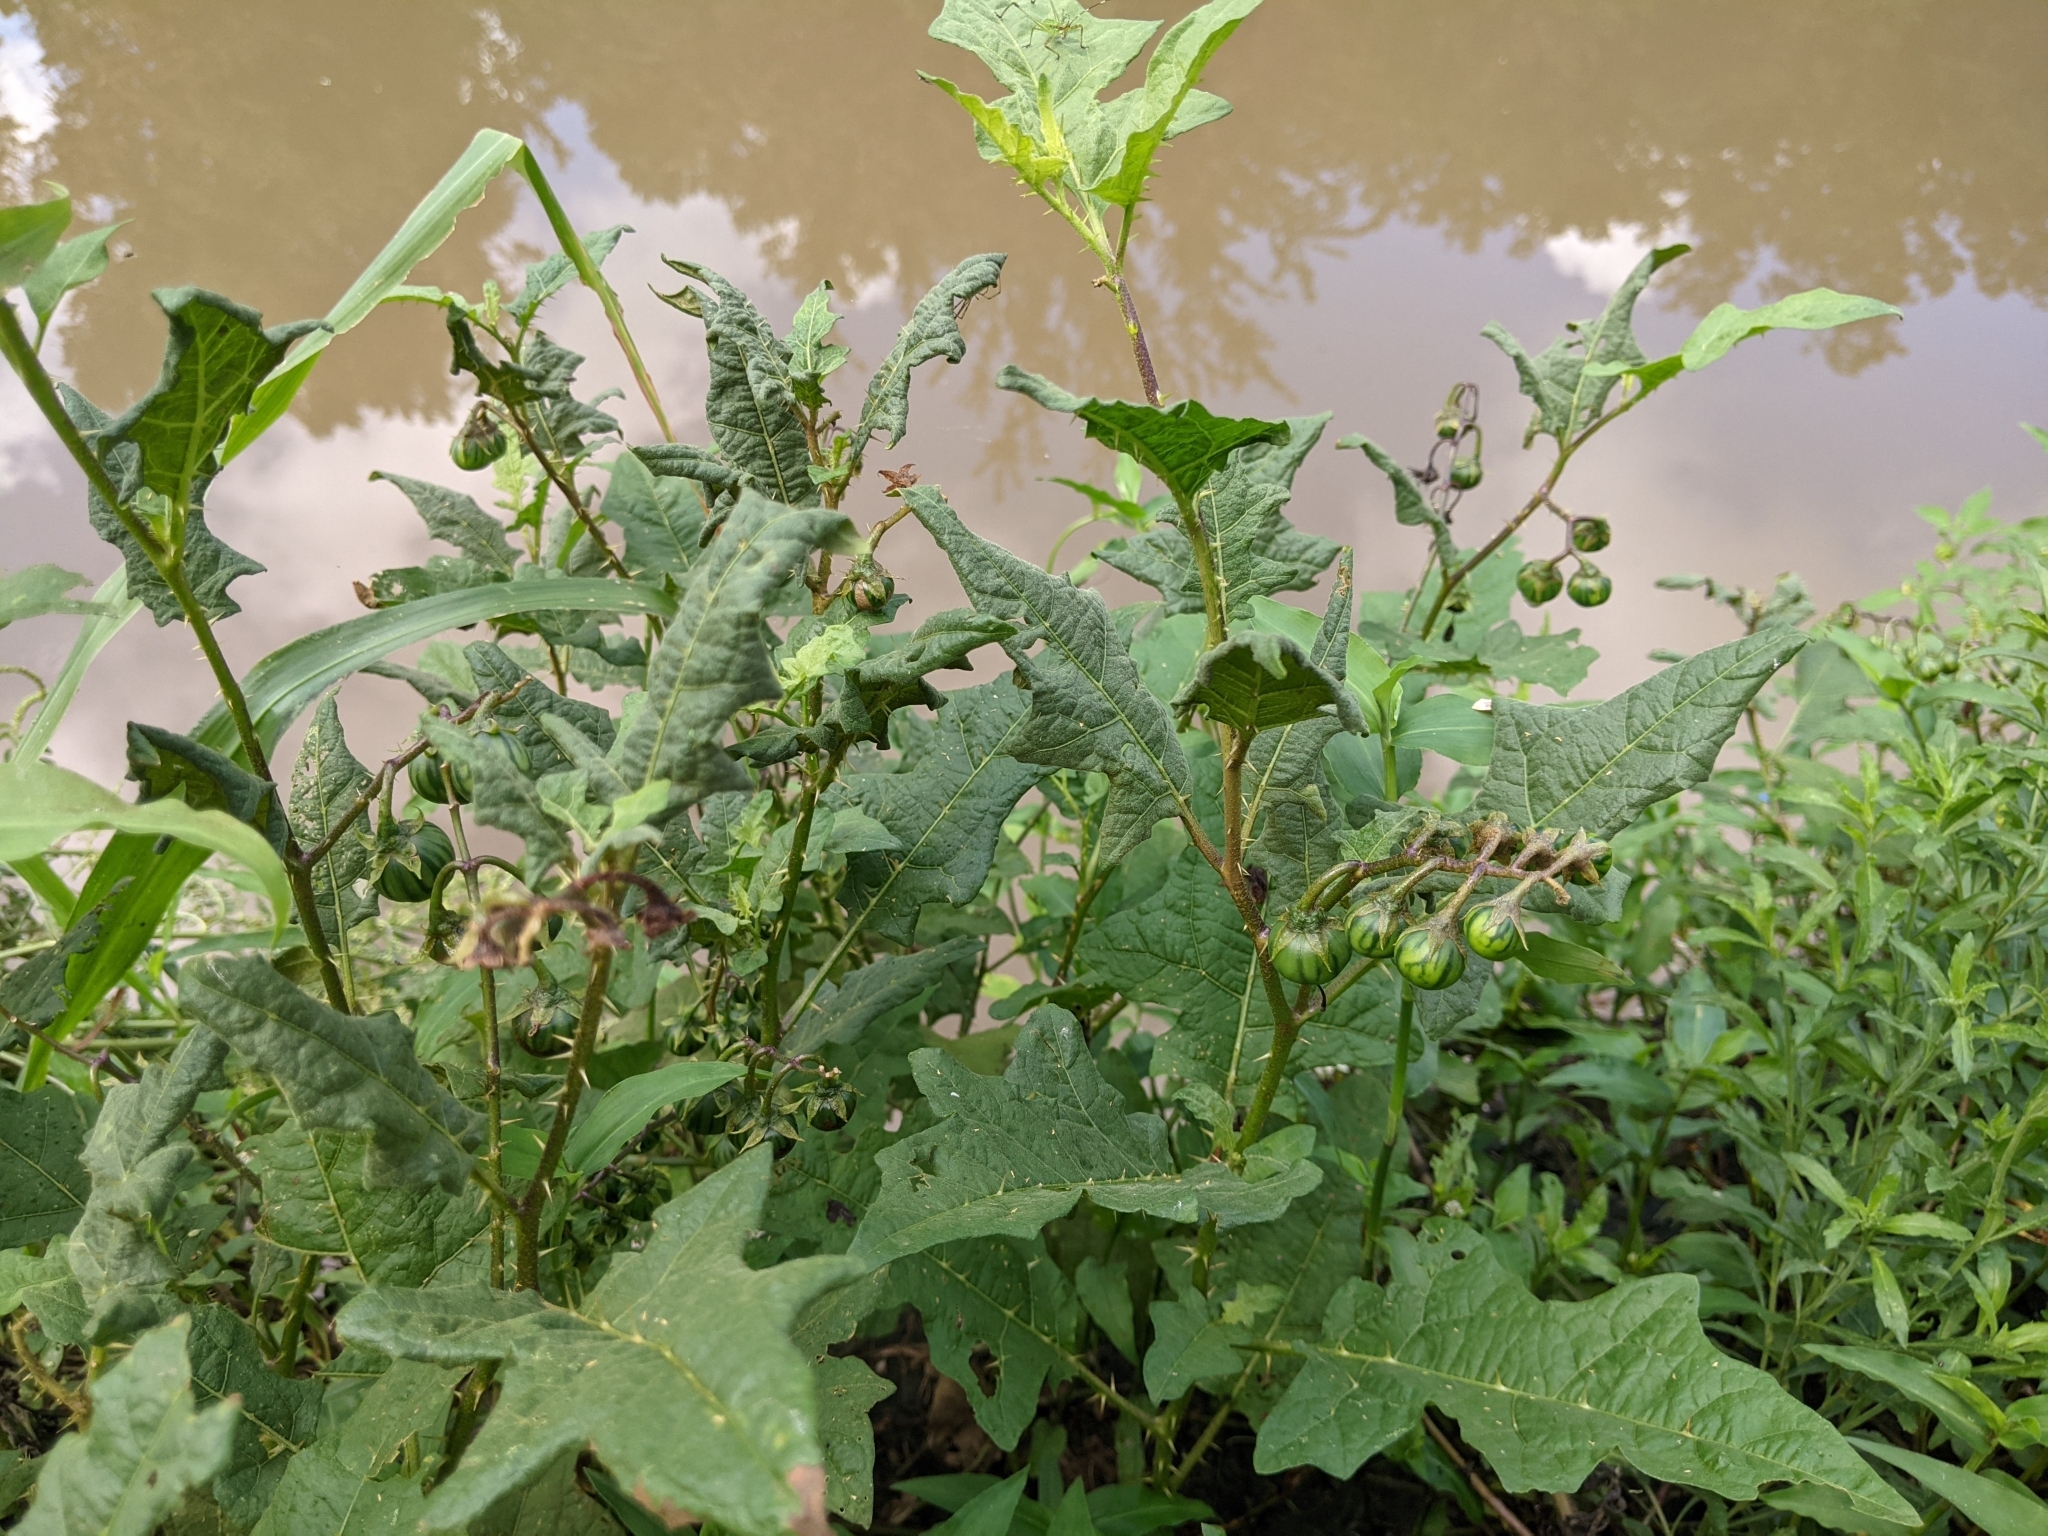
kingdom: Plantae
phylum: Tracheophyta
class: Magnoliopsida
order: Solanales
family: Solanaceae
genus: Solanum
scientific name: Solanum carolinense
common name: Horse-nettle
